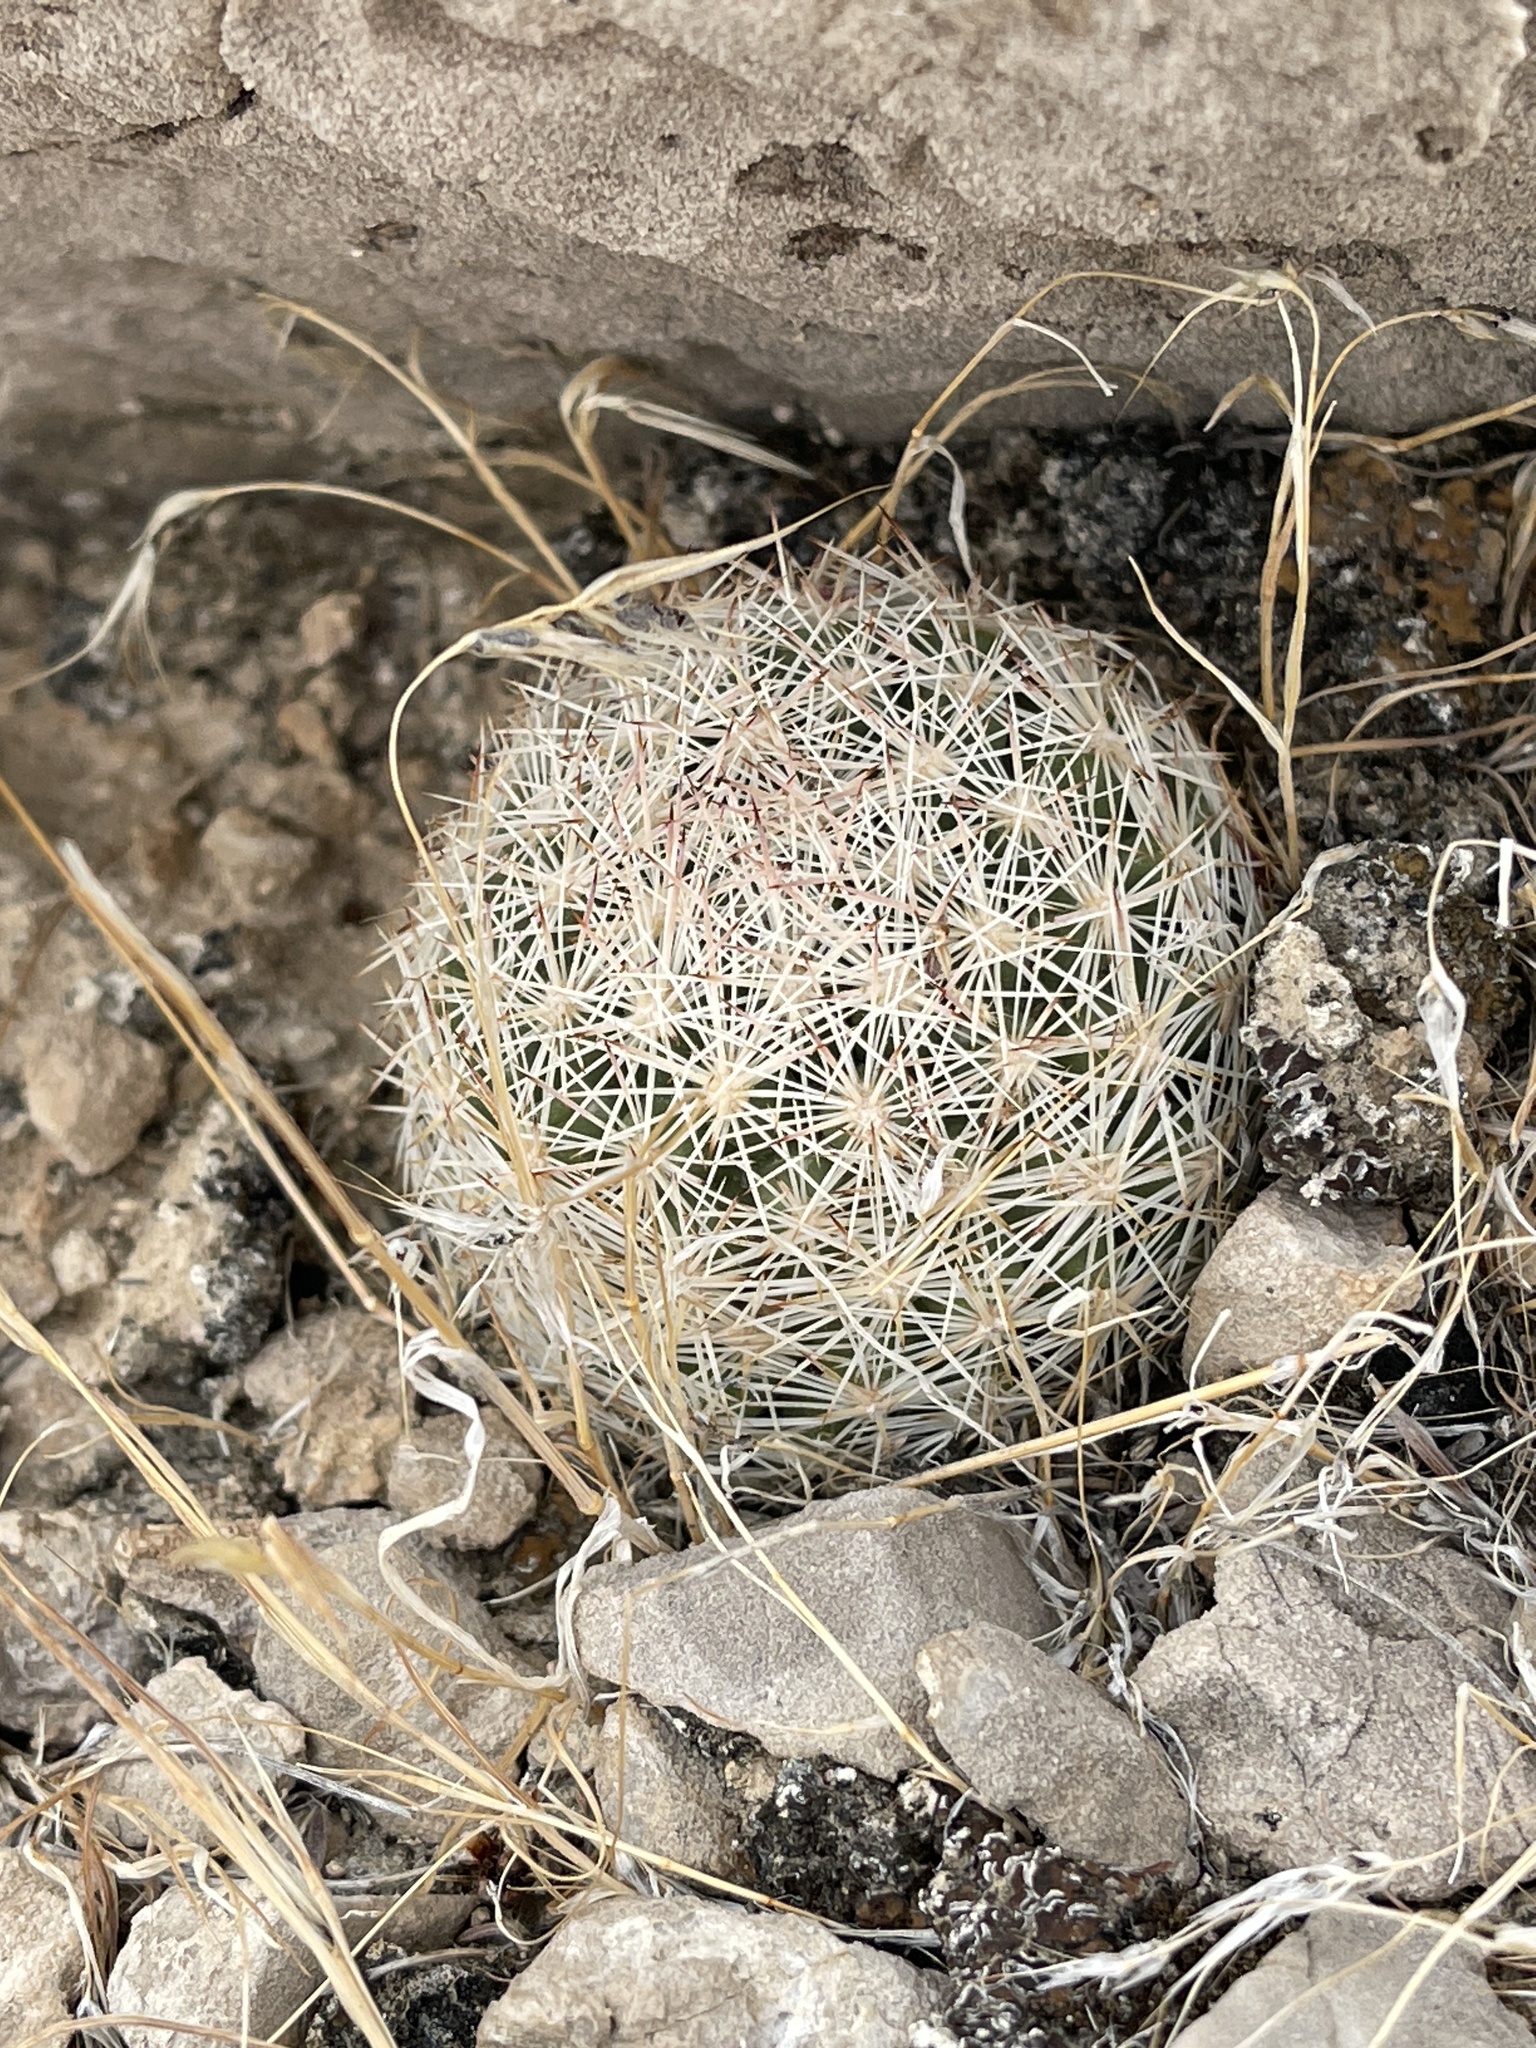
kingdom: Plantae
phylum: Tracheophyta
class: Magnoliopsida
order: Caryophyllales
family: Cactaceae
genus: Pelecyphora
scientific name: Pelecyphora dasyacantha
